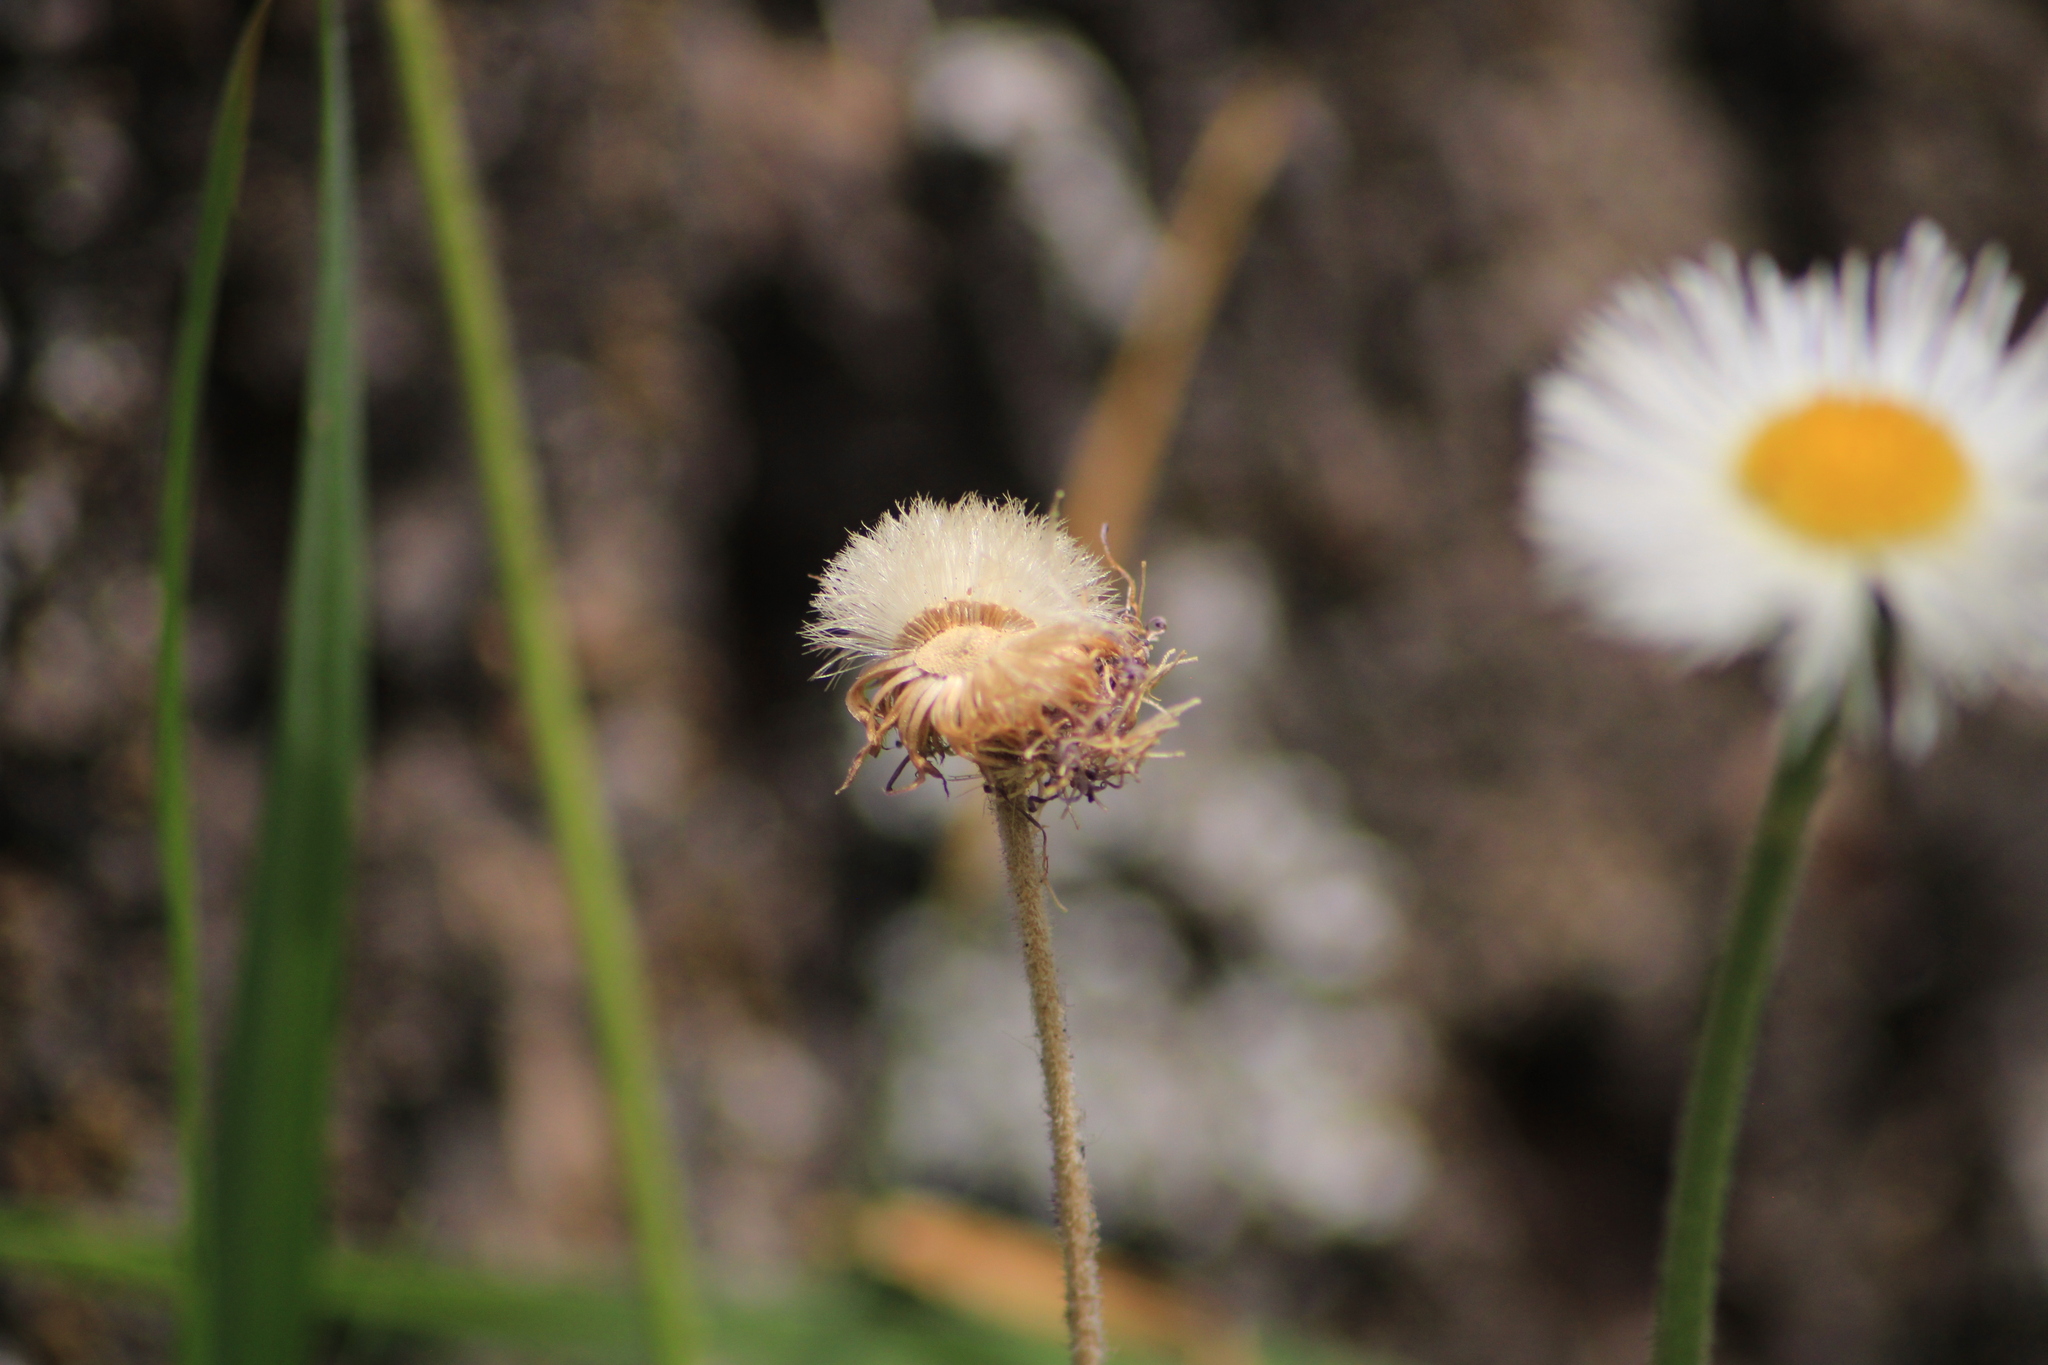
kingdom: Plantae
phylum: Tracheophyta
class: Magnoliopsida
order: Asterales
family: Asteraceae
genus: Erigeron
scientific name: Erigeron longipes
